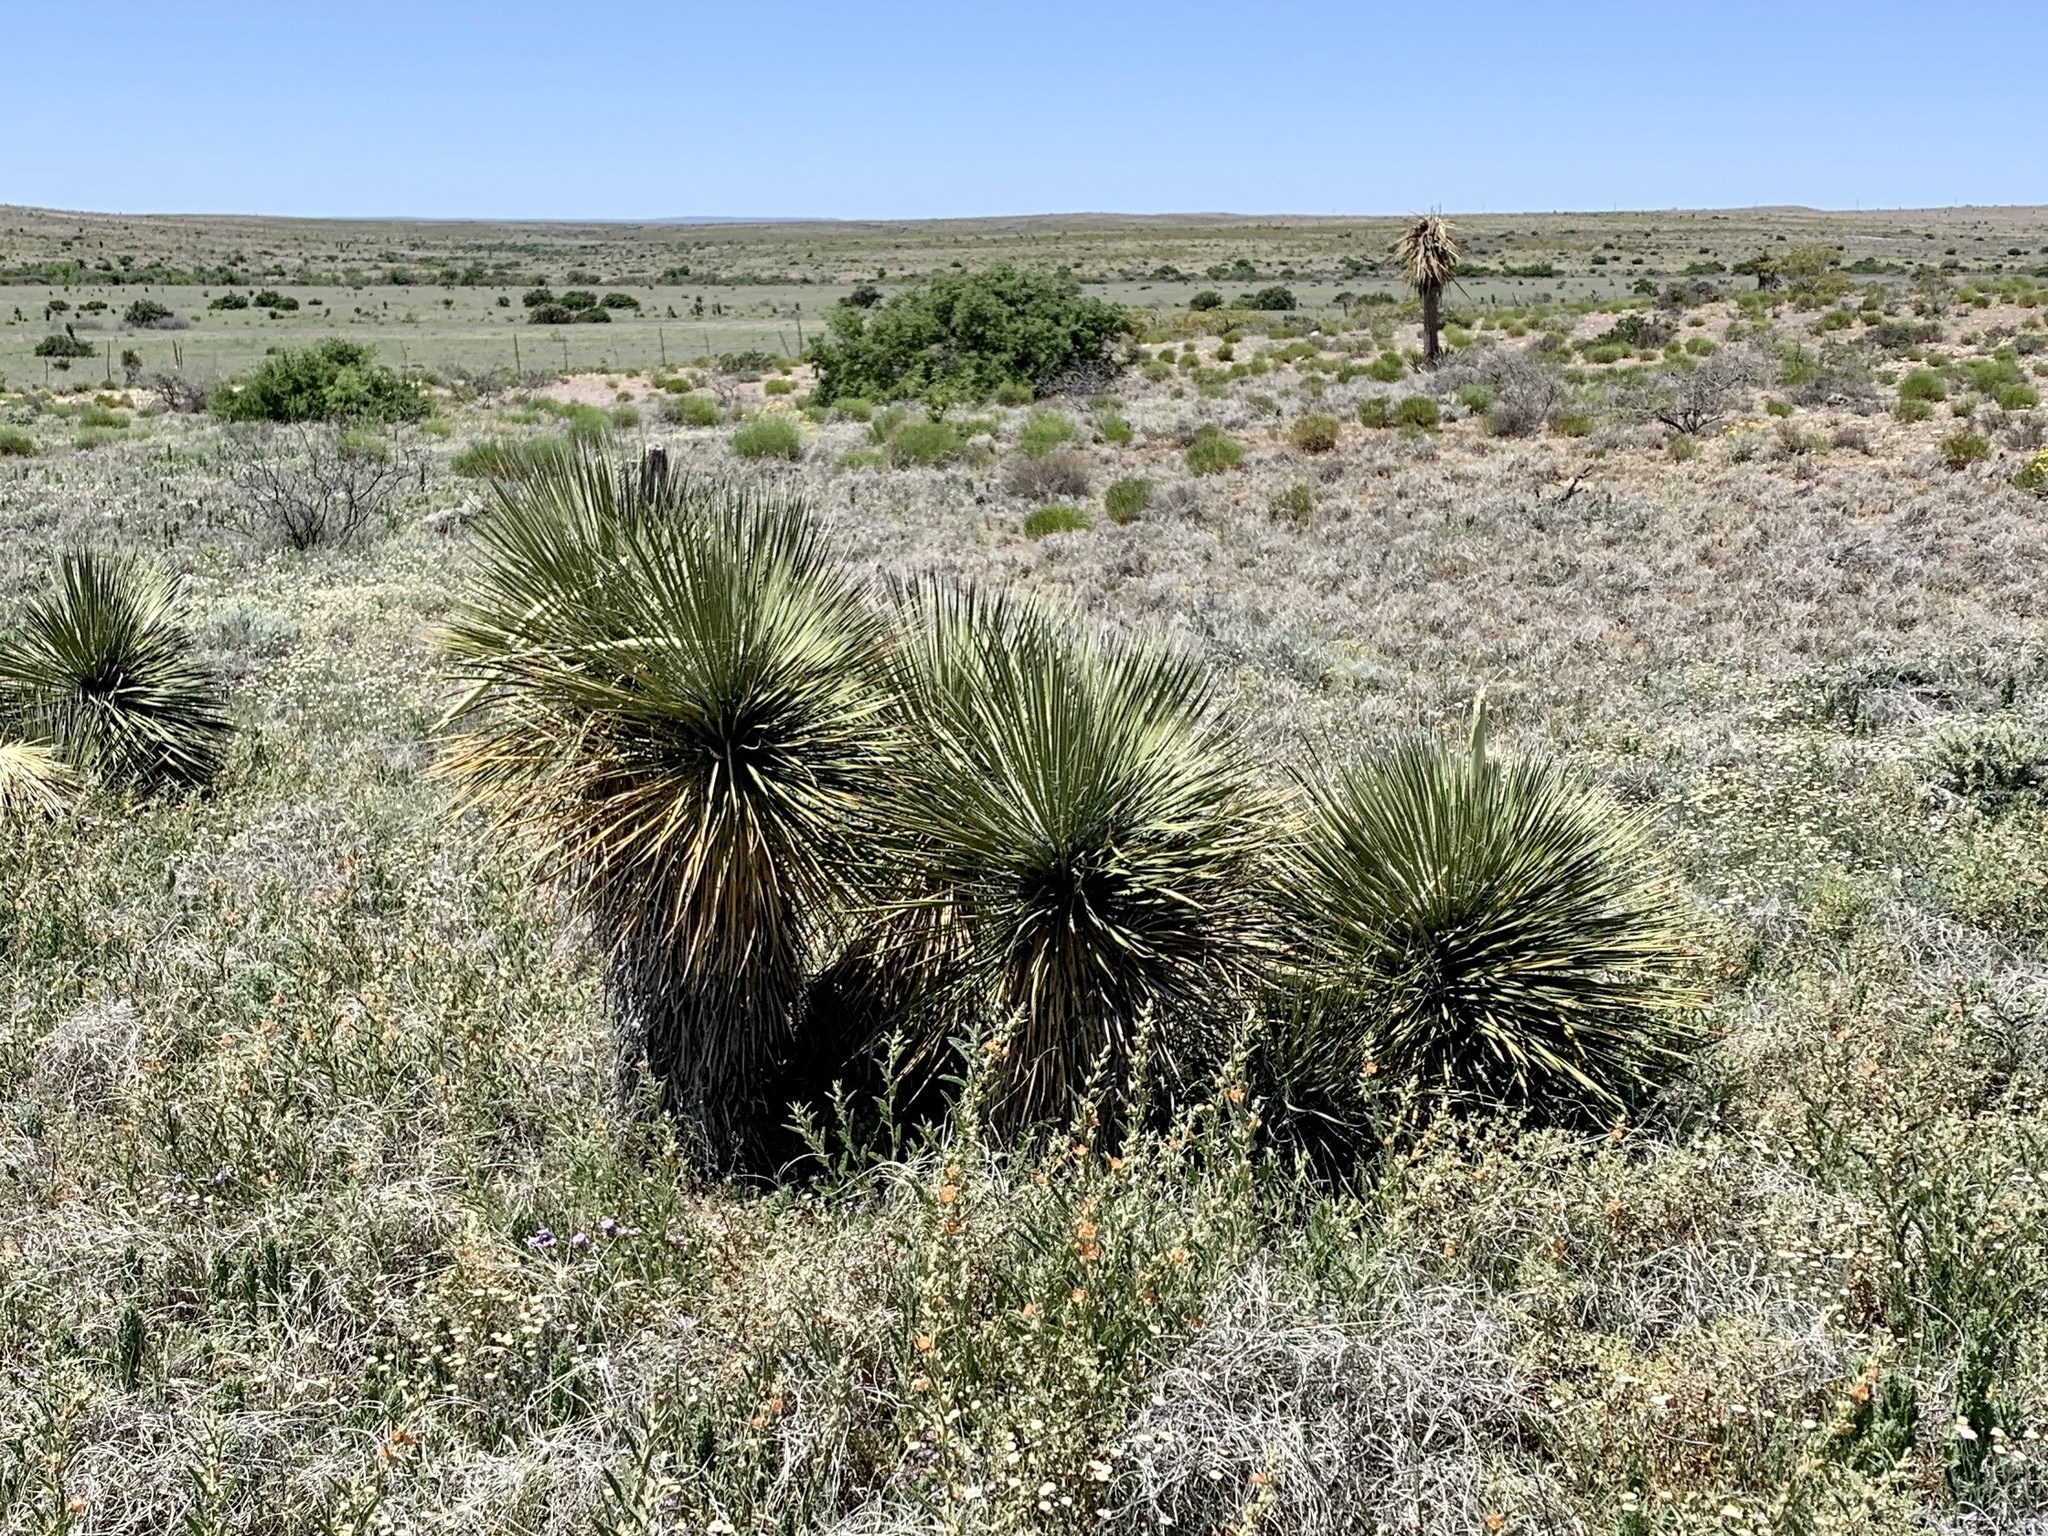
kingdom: Plantae
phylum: Tracheophyta
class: Liliopsida
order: Asparagales
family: Asparagaceae
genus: Yucca
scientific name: Yucca elata
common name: Palmella
